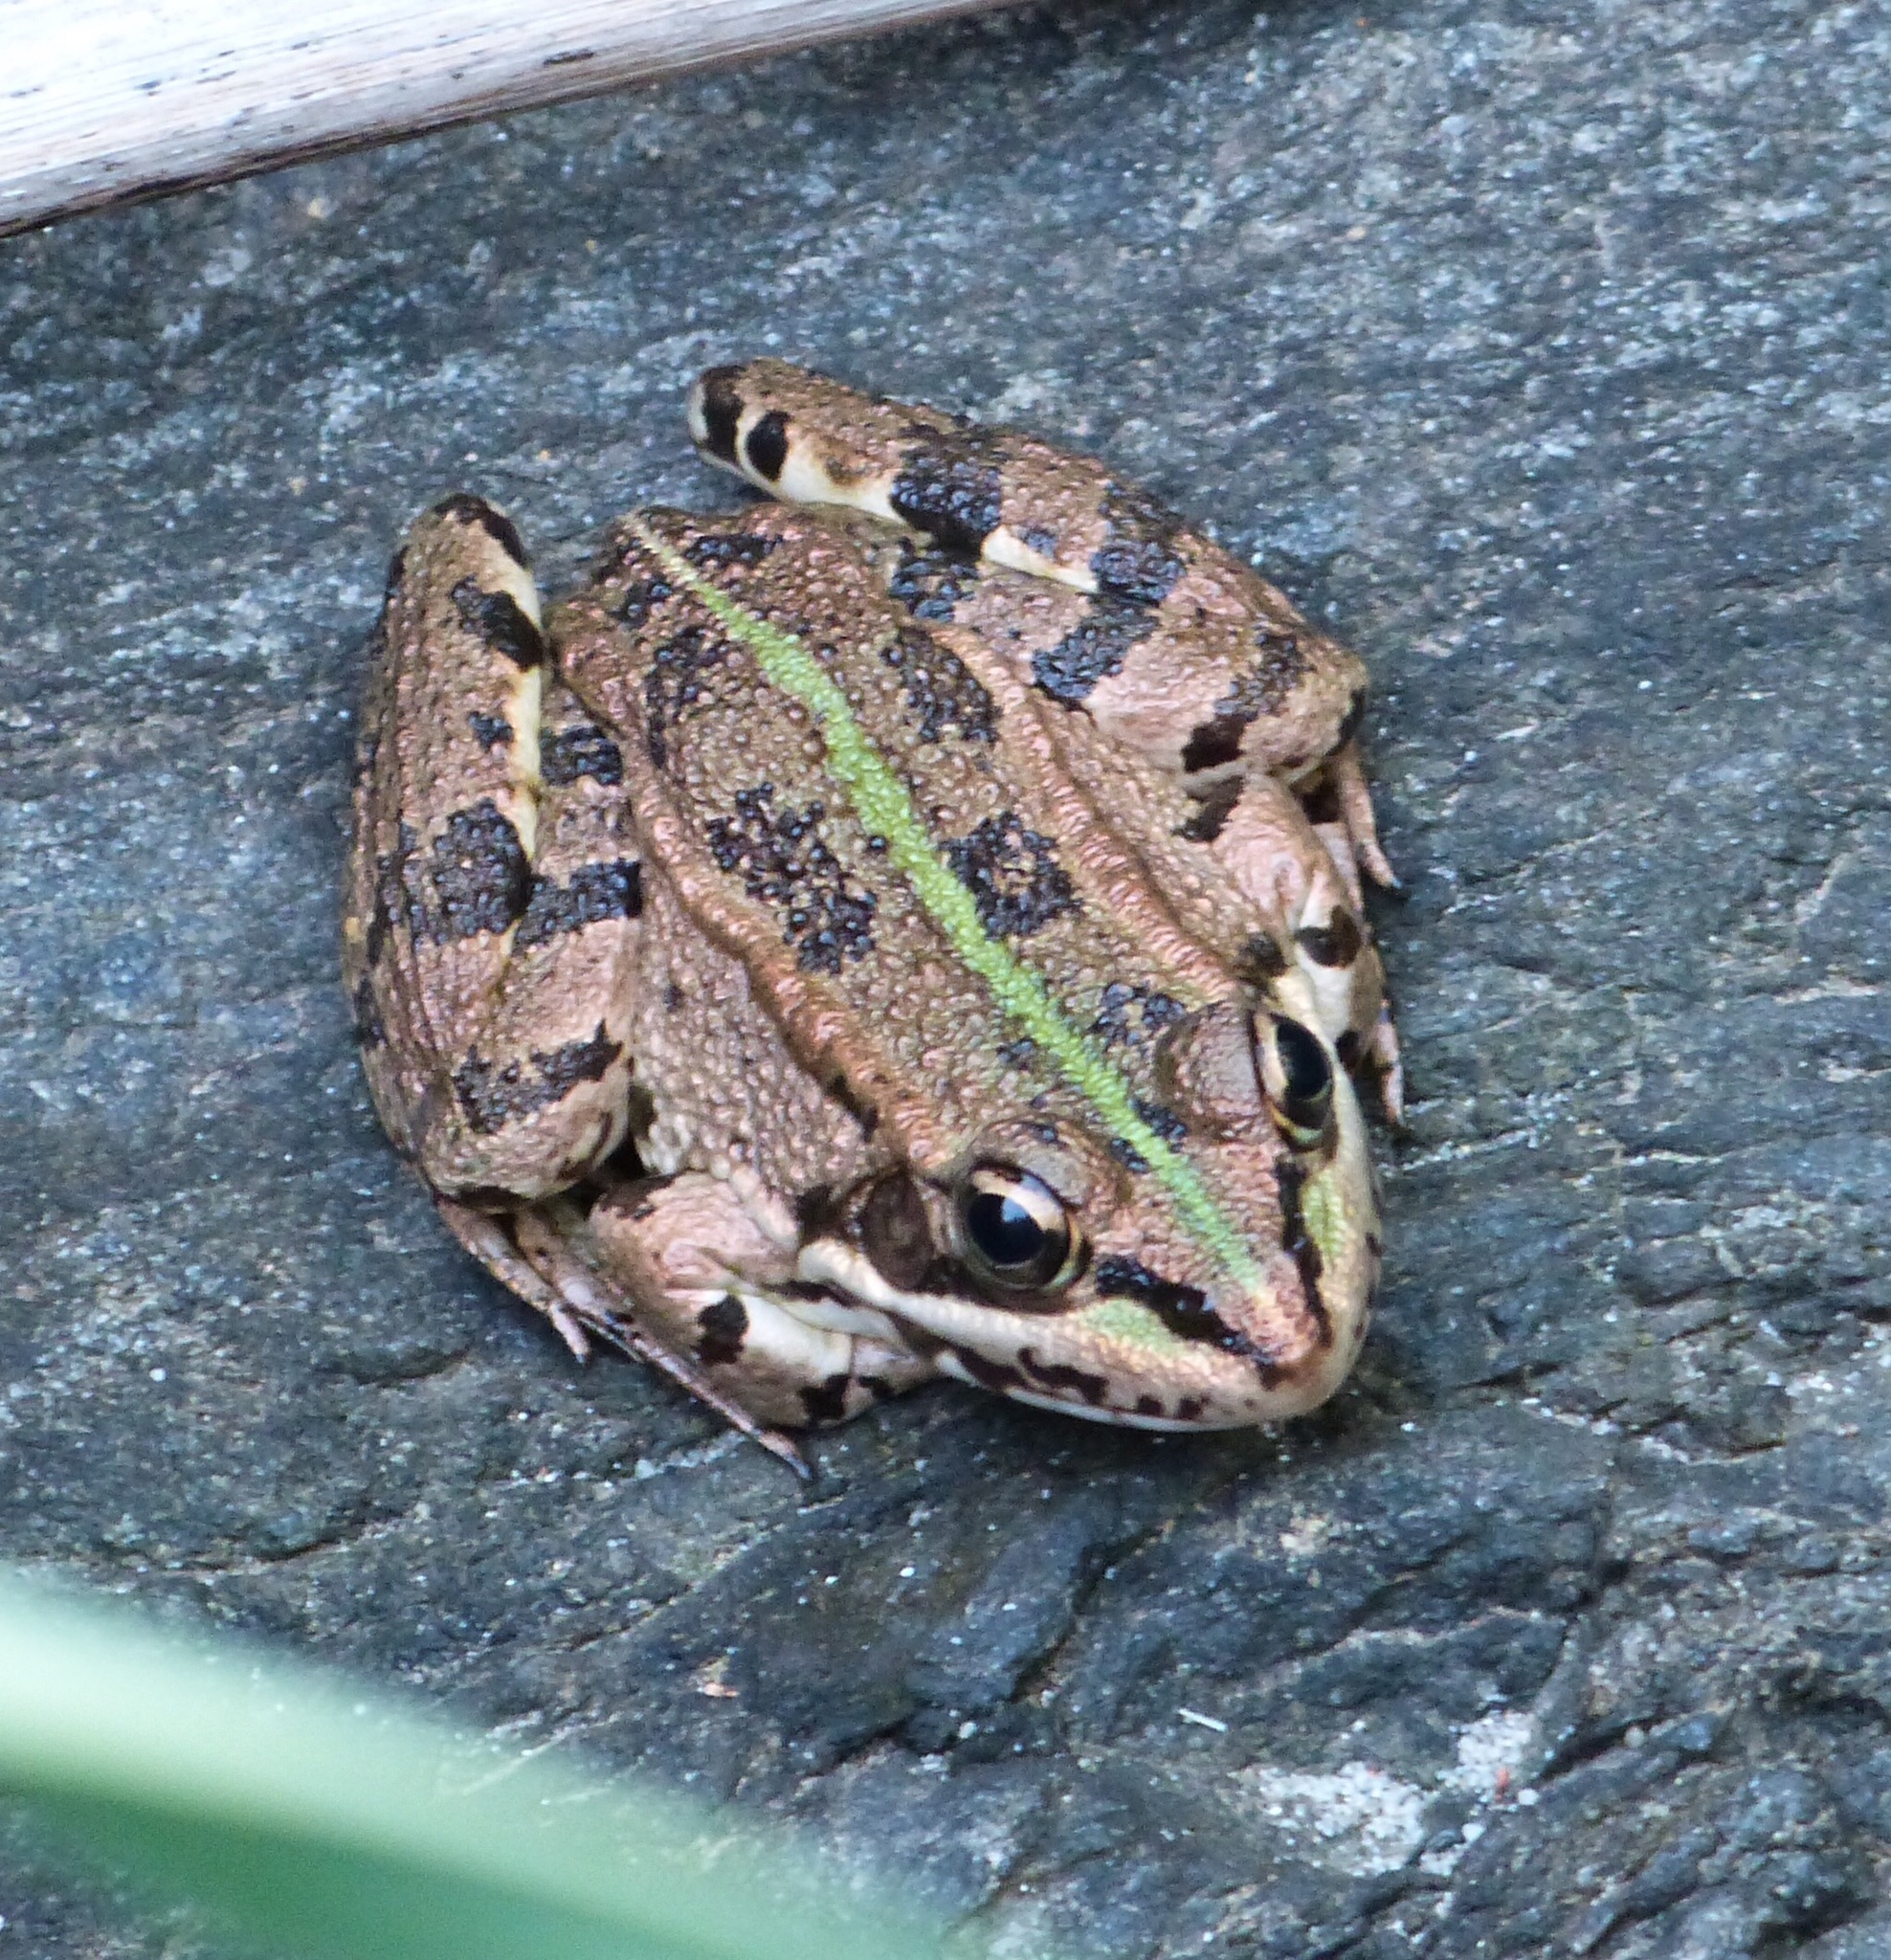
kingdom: Animalia
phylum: Chordata
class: Amphibia
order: Anura
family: Ranidae
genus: Pelophylax
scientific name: Pelophylax perezi
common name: Perez's frog
